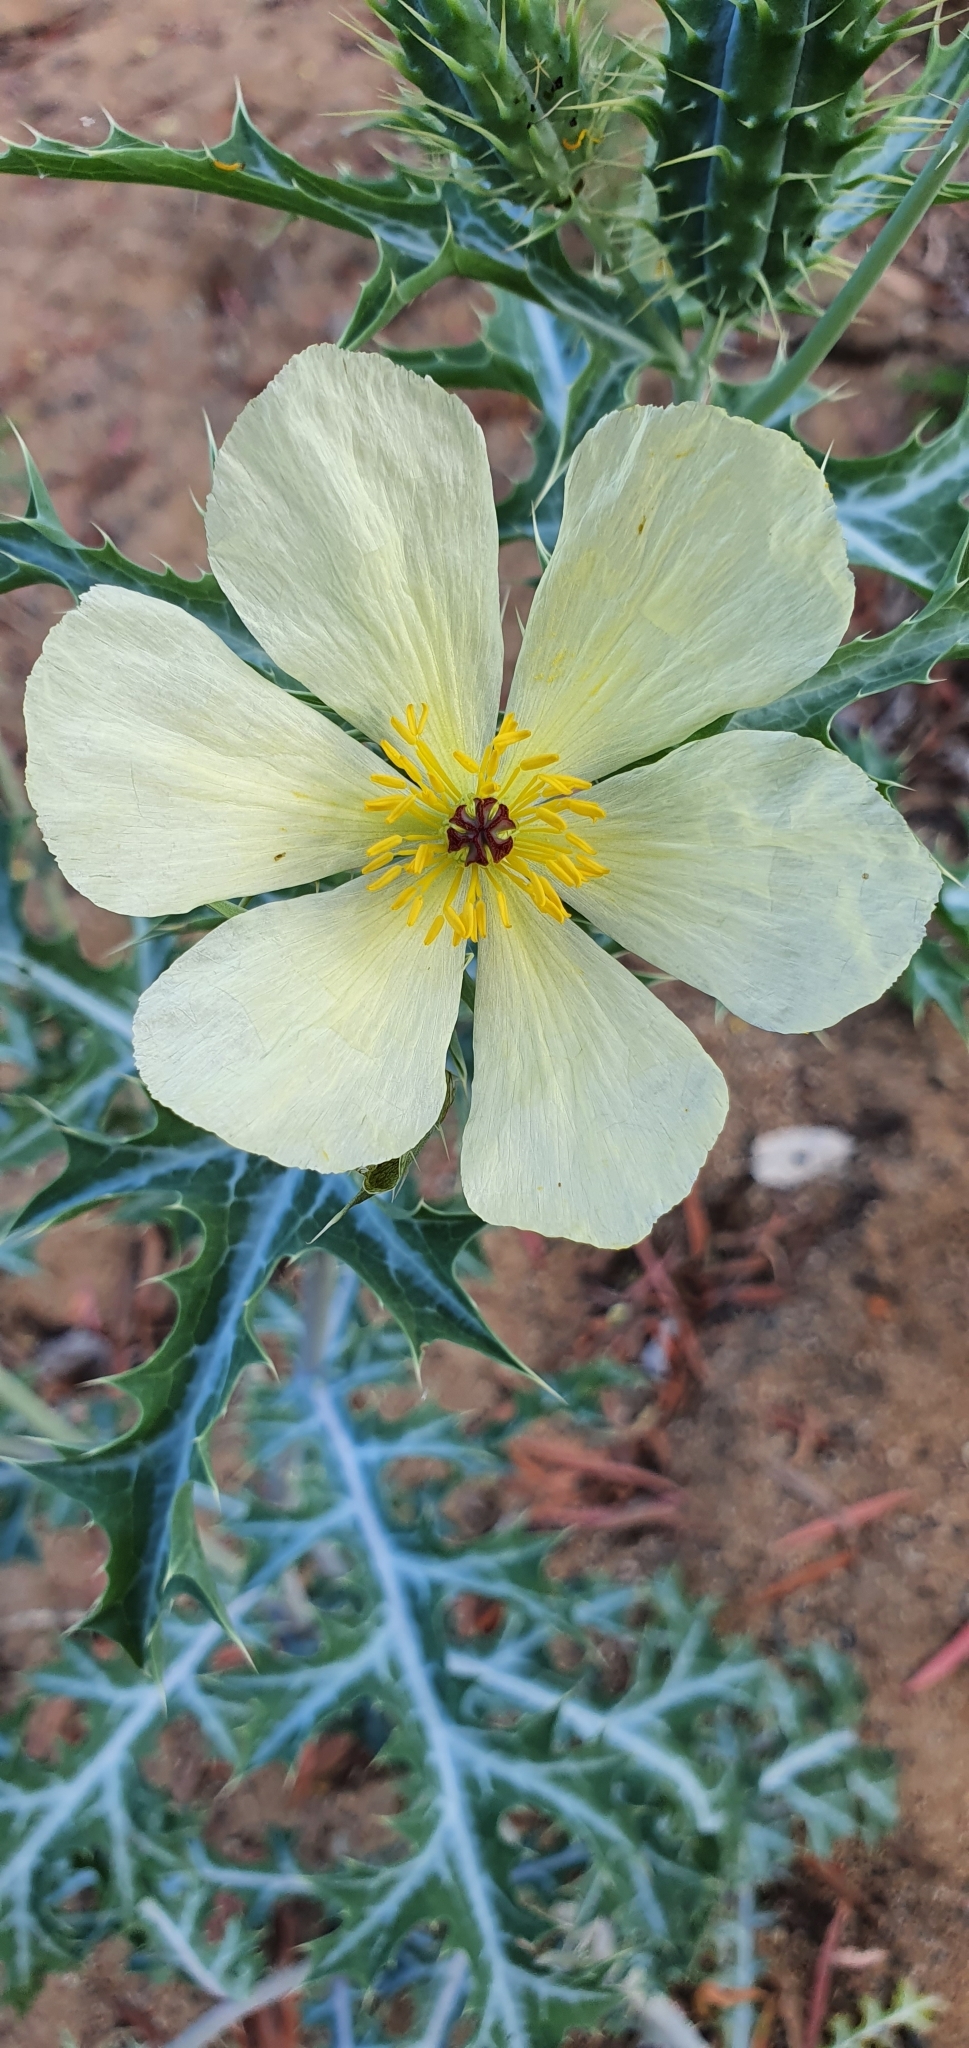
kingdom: Plantae
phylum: Tracheophyta
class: Magnoliopsida
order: Ranunculales
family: Papaveraceae
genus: Argemone
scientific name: Argemone ochroleuca
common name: White-flower mexican-poppy
